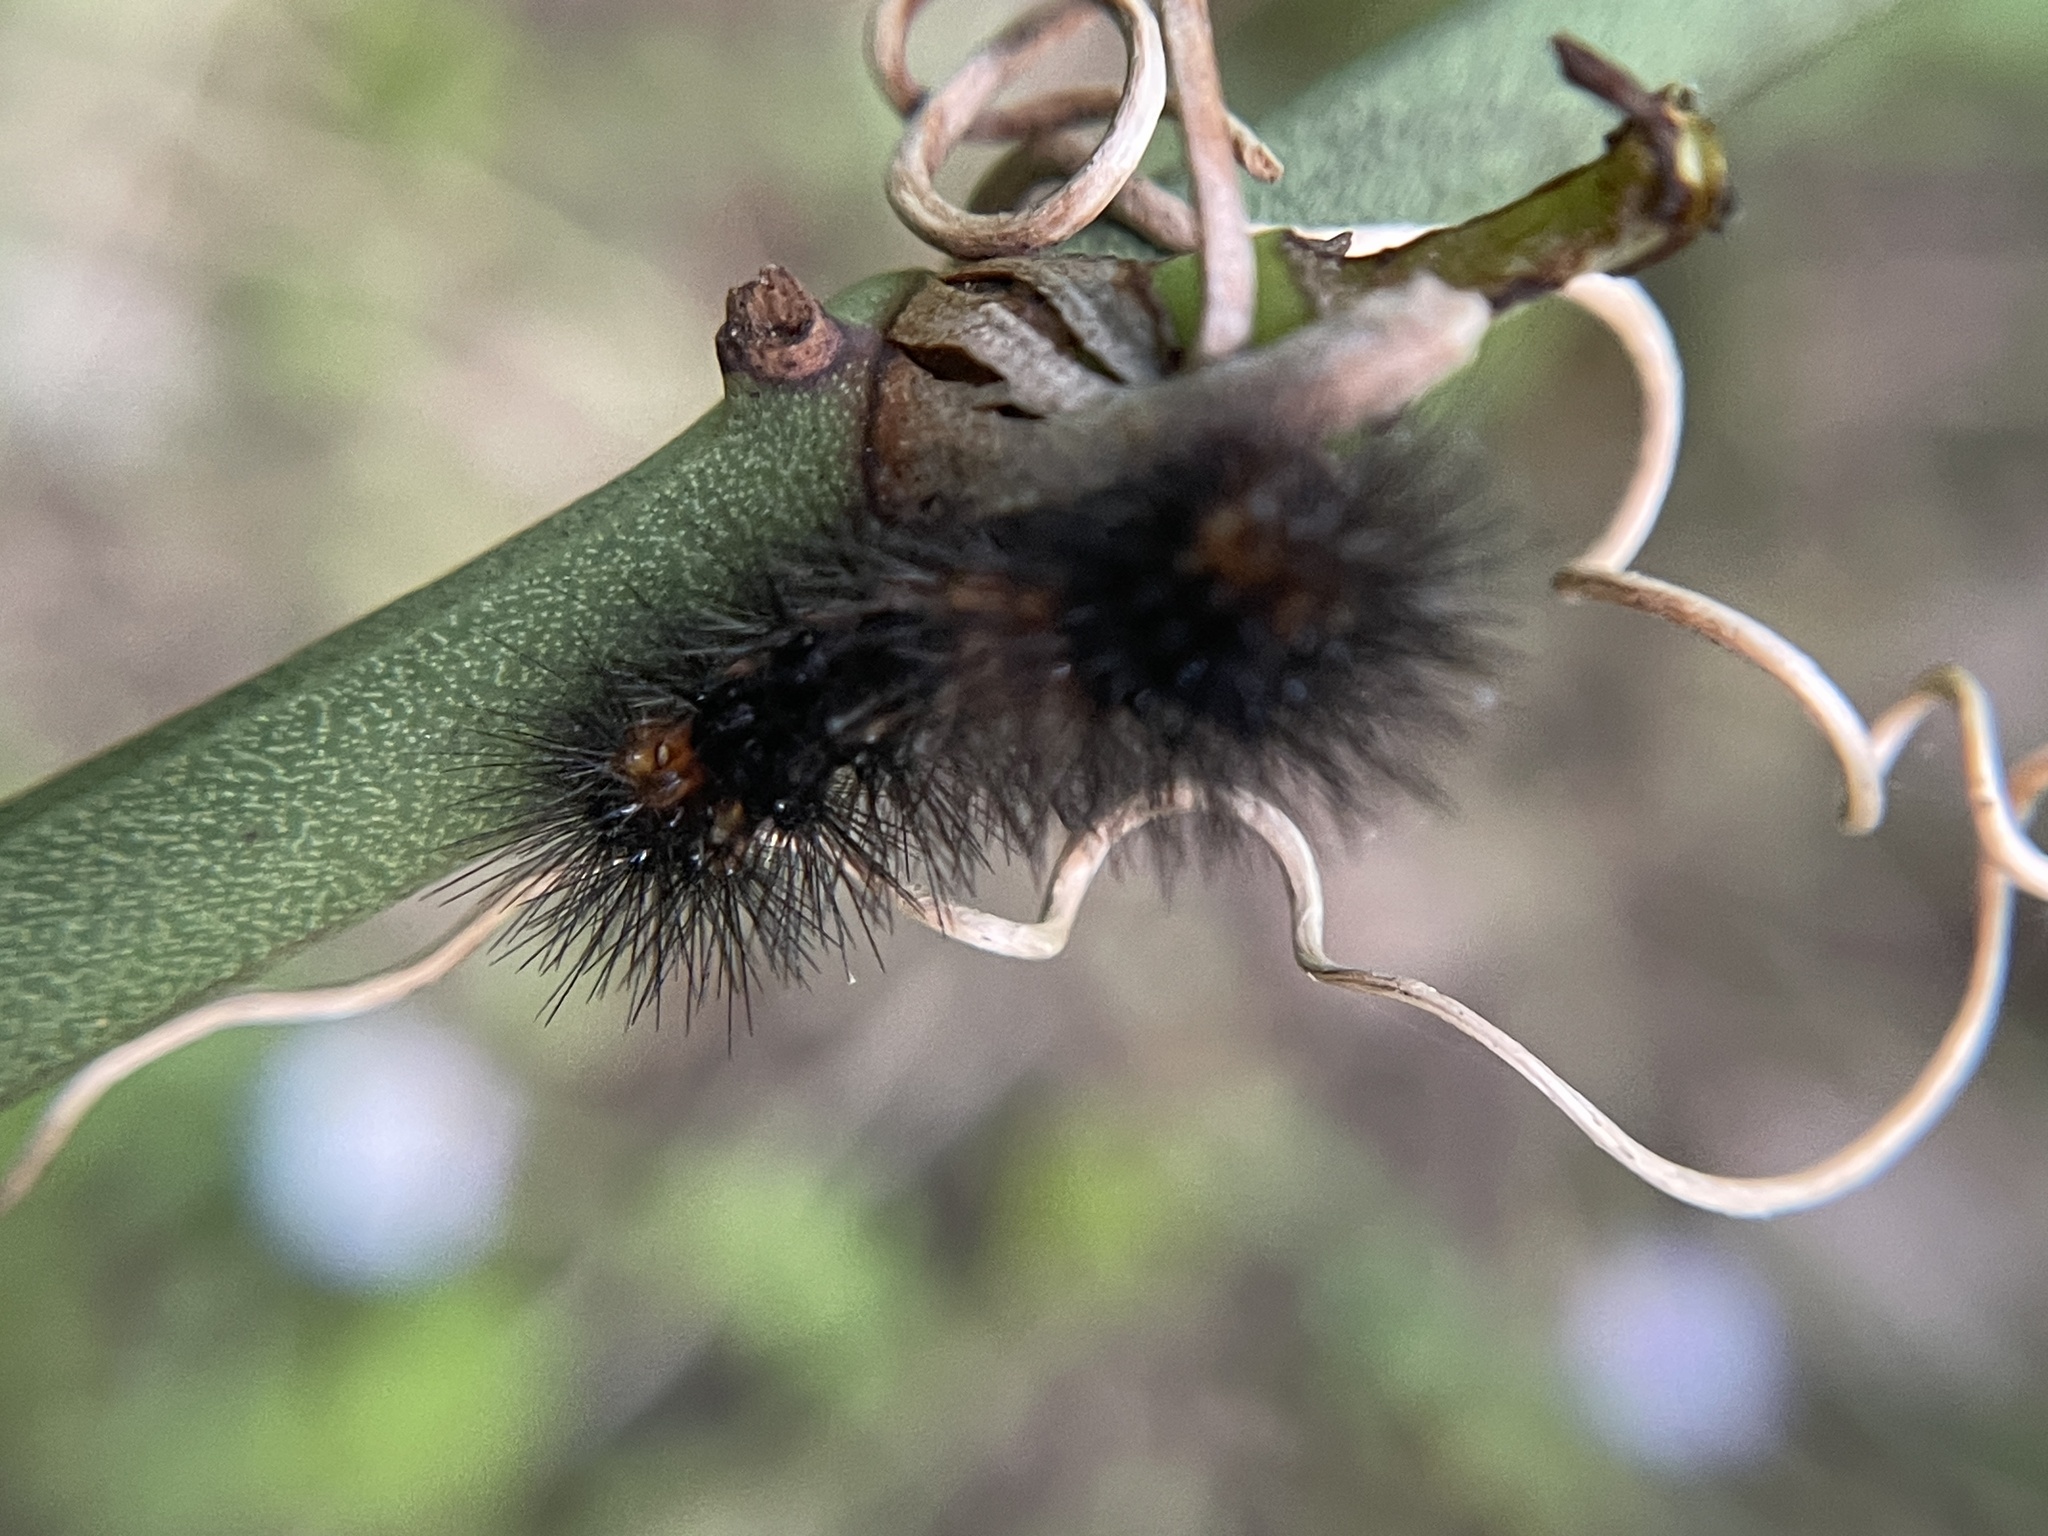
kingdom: Animalia
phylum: Arthropoda
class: Insecta
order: Lepidoptera
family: Erebidae
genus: Hypercompe
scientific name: Hypercompe scribonia
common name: Giant leopard moth
